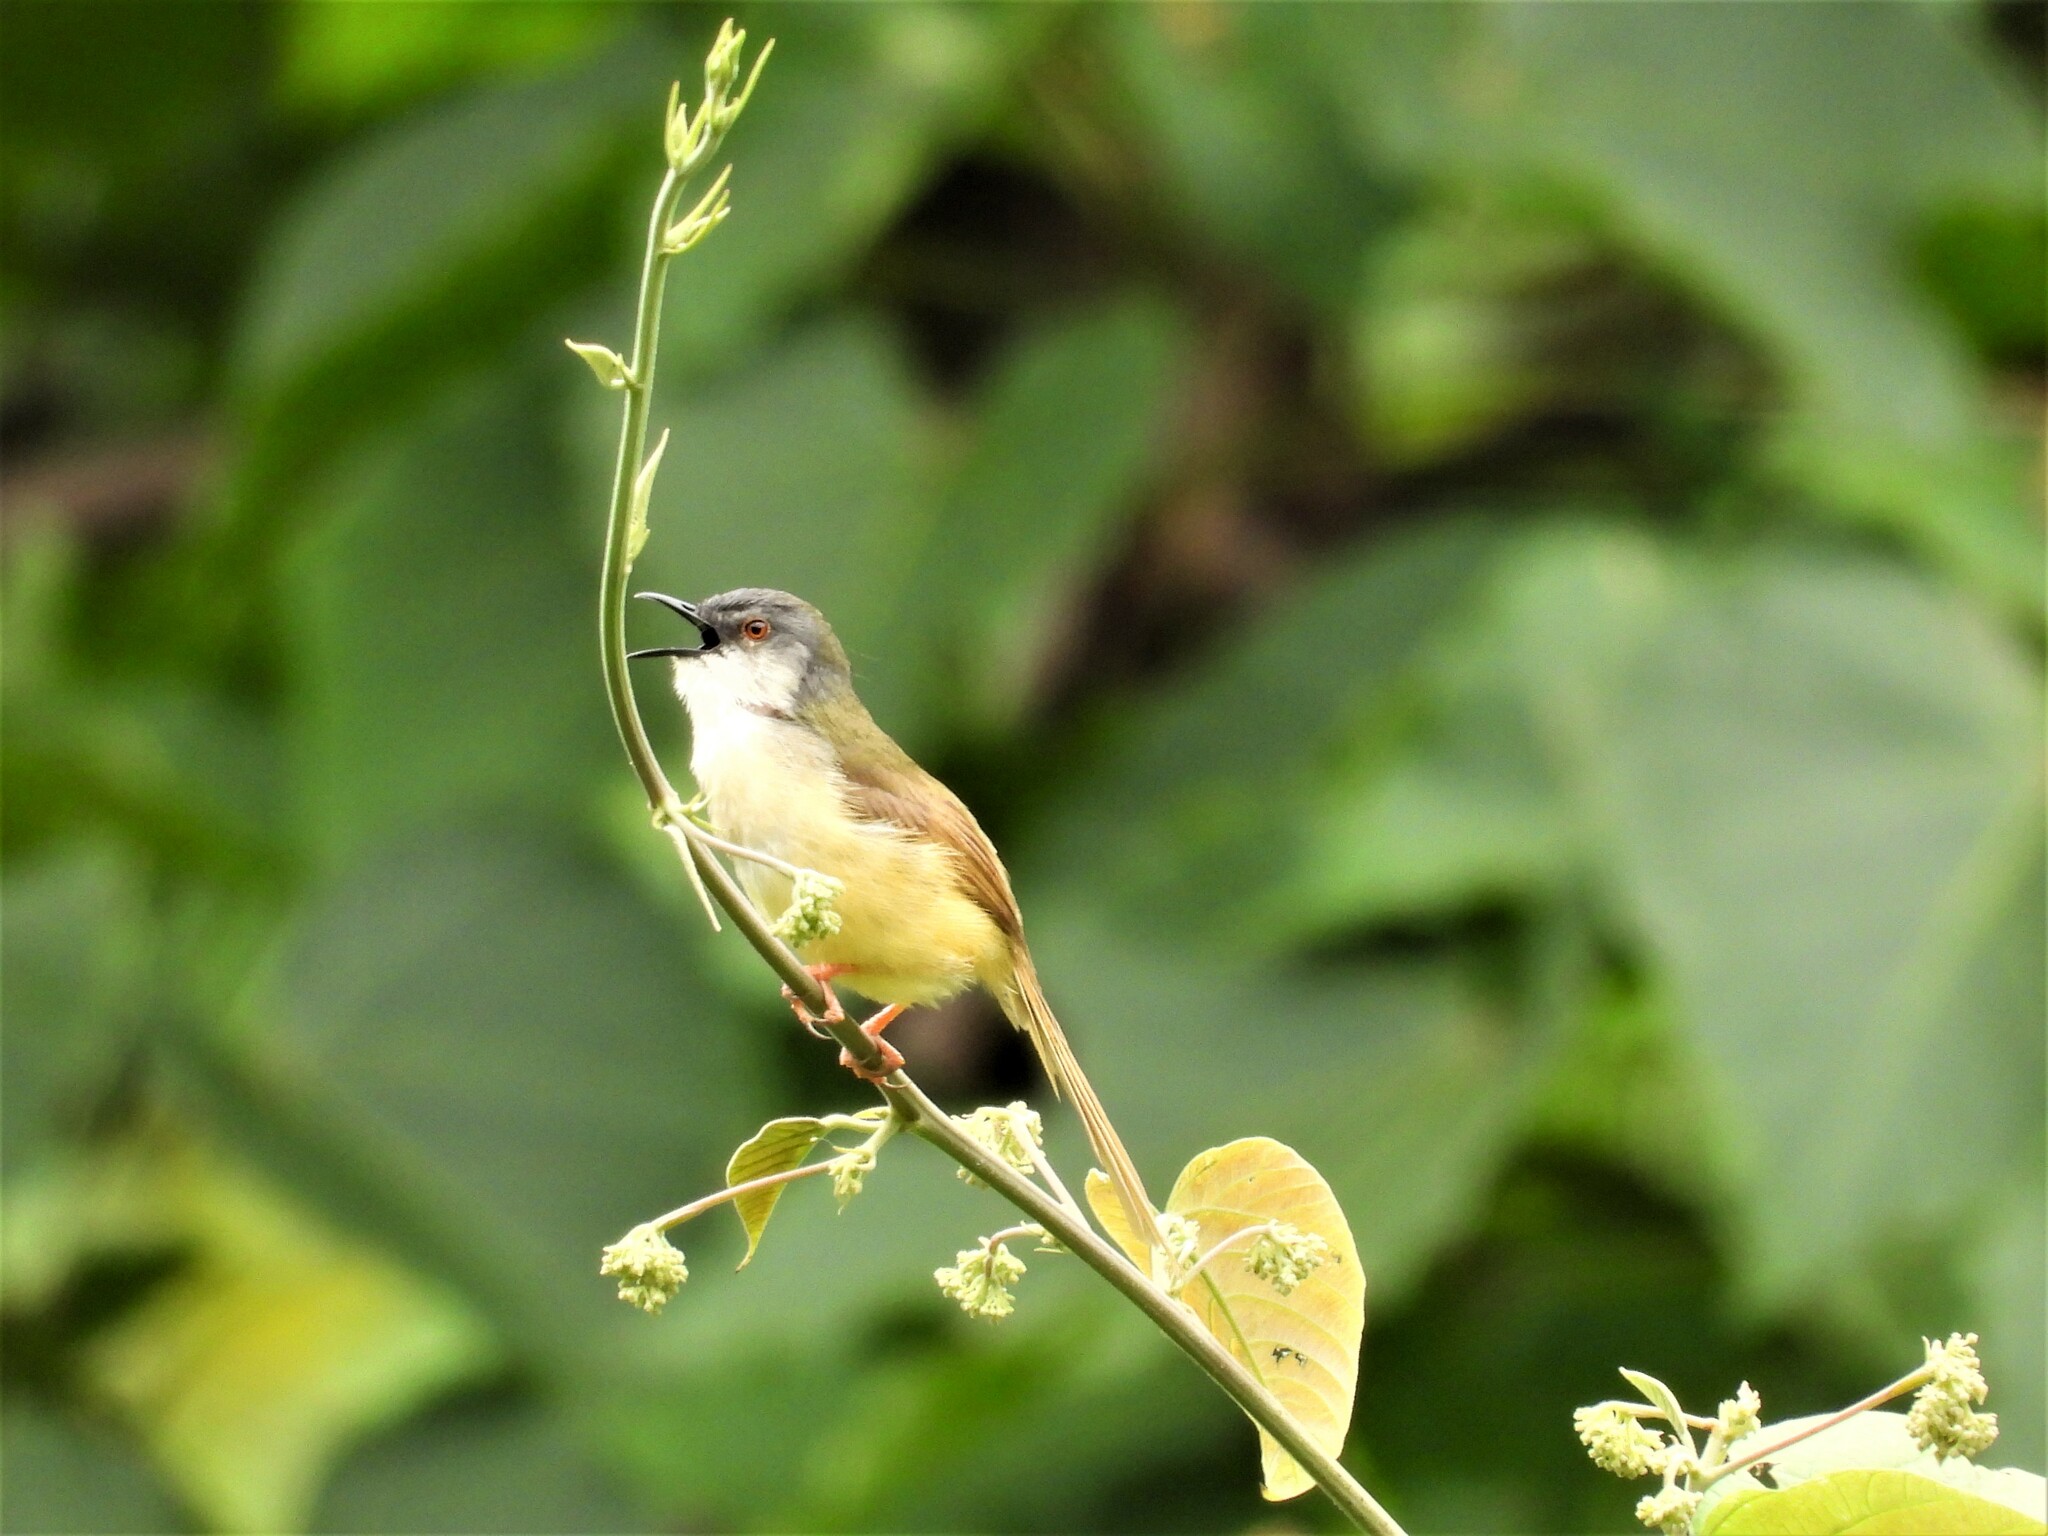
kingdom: Animalia
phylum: Chordata
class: Aves
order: Passeriformes
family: Cisticolidae
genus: Prinia
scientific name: Prinia flaviventris
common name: Yellow-bellied prinia
